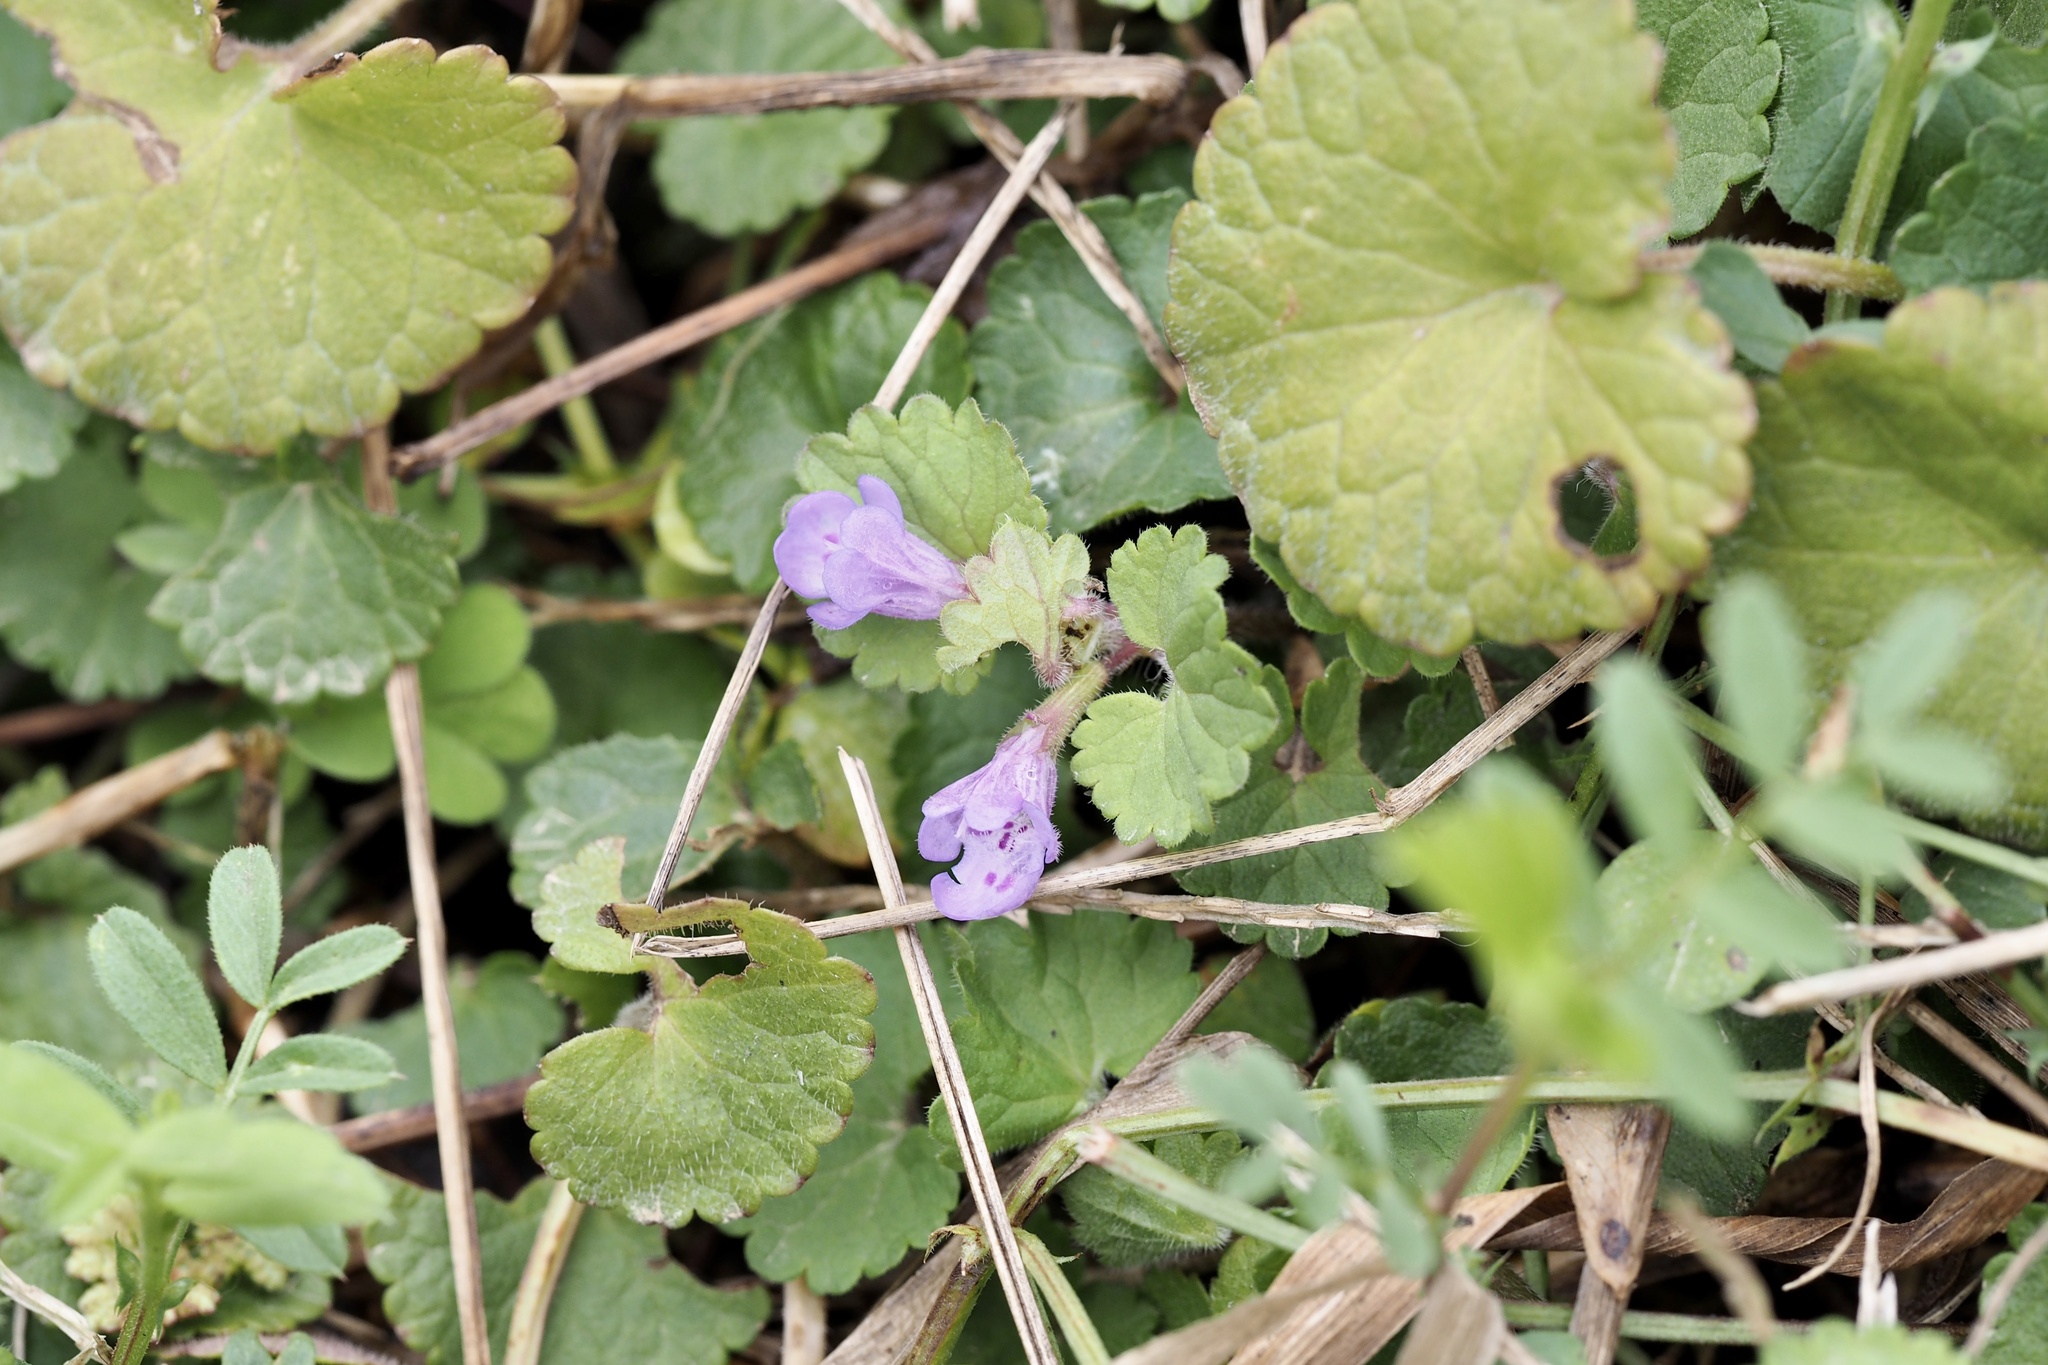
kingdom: Plantae
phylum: Tracheophyta
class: Magnoliopsida
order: Lamiales
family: Lamiaceae
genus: Glechoma
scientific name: Glechoma grandis
